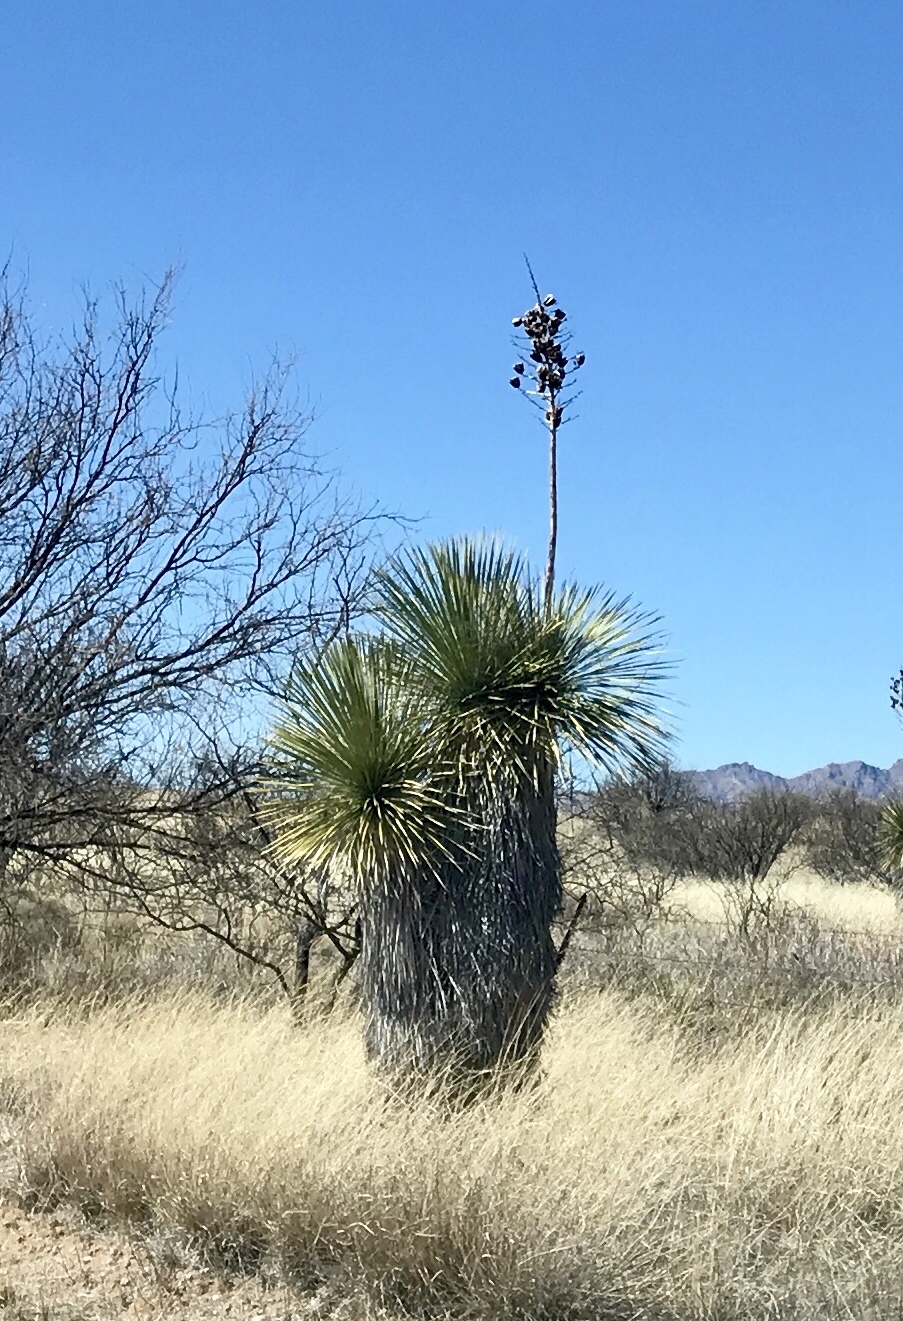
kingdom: Plantae
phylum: Tracheophyta
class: Liliopsida
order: Asparagales
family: Asparagaceae
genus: Yucca
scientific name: Yucca elata
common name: Palmella
